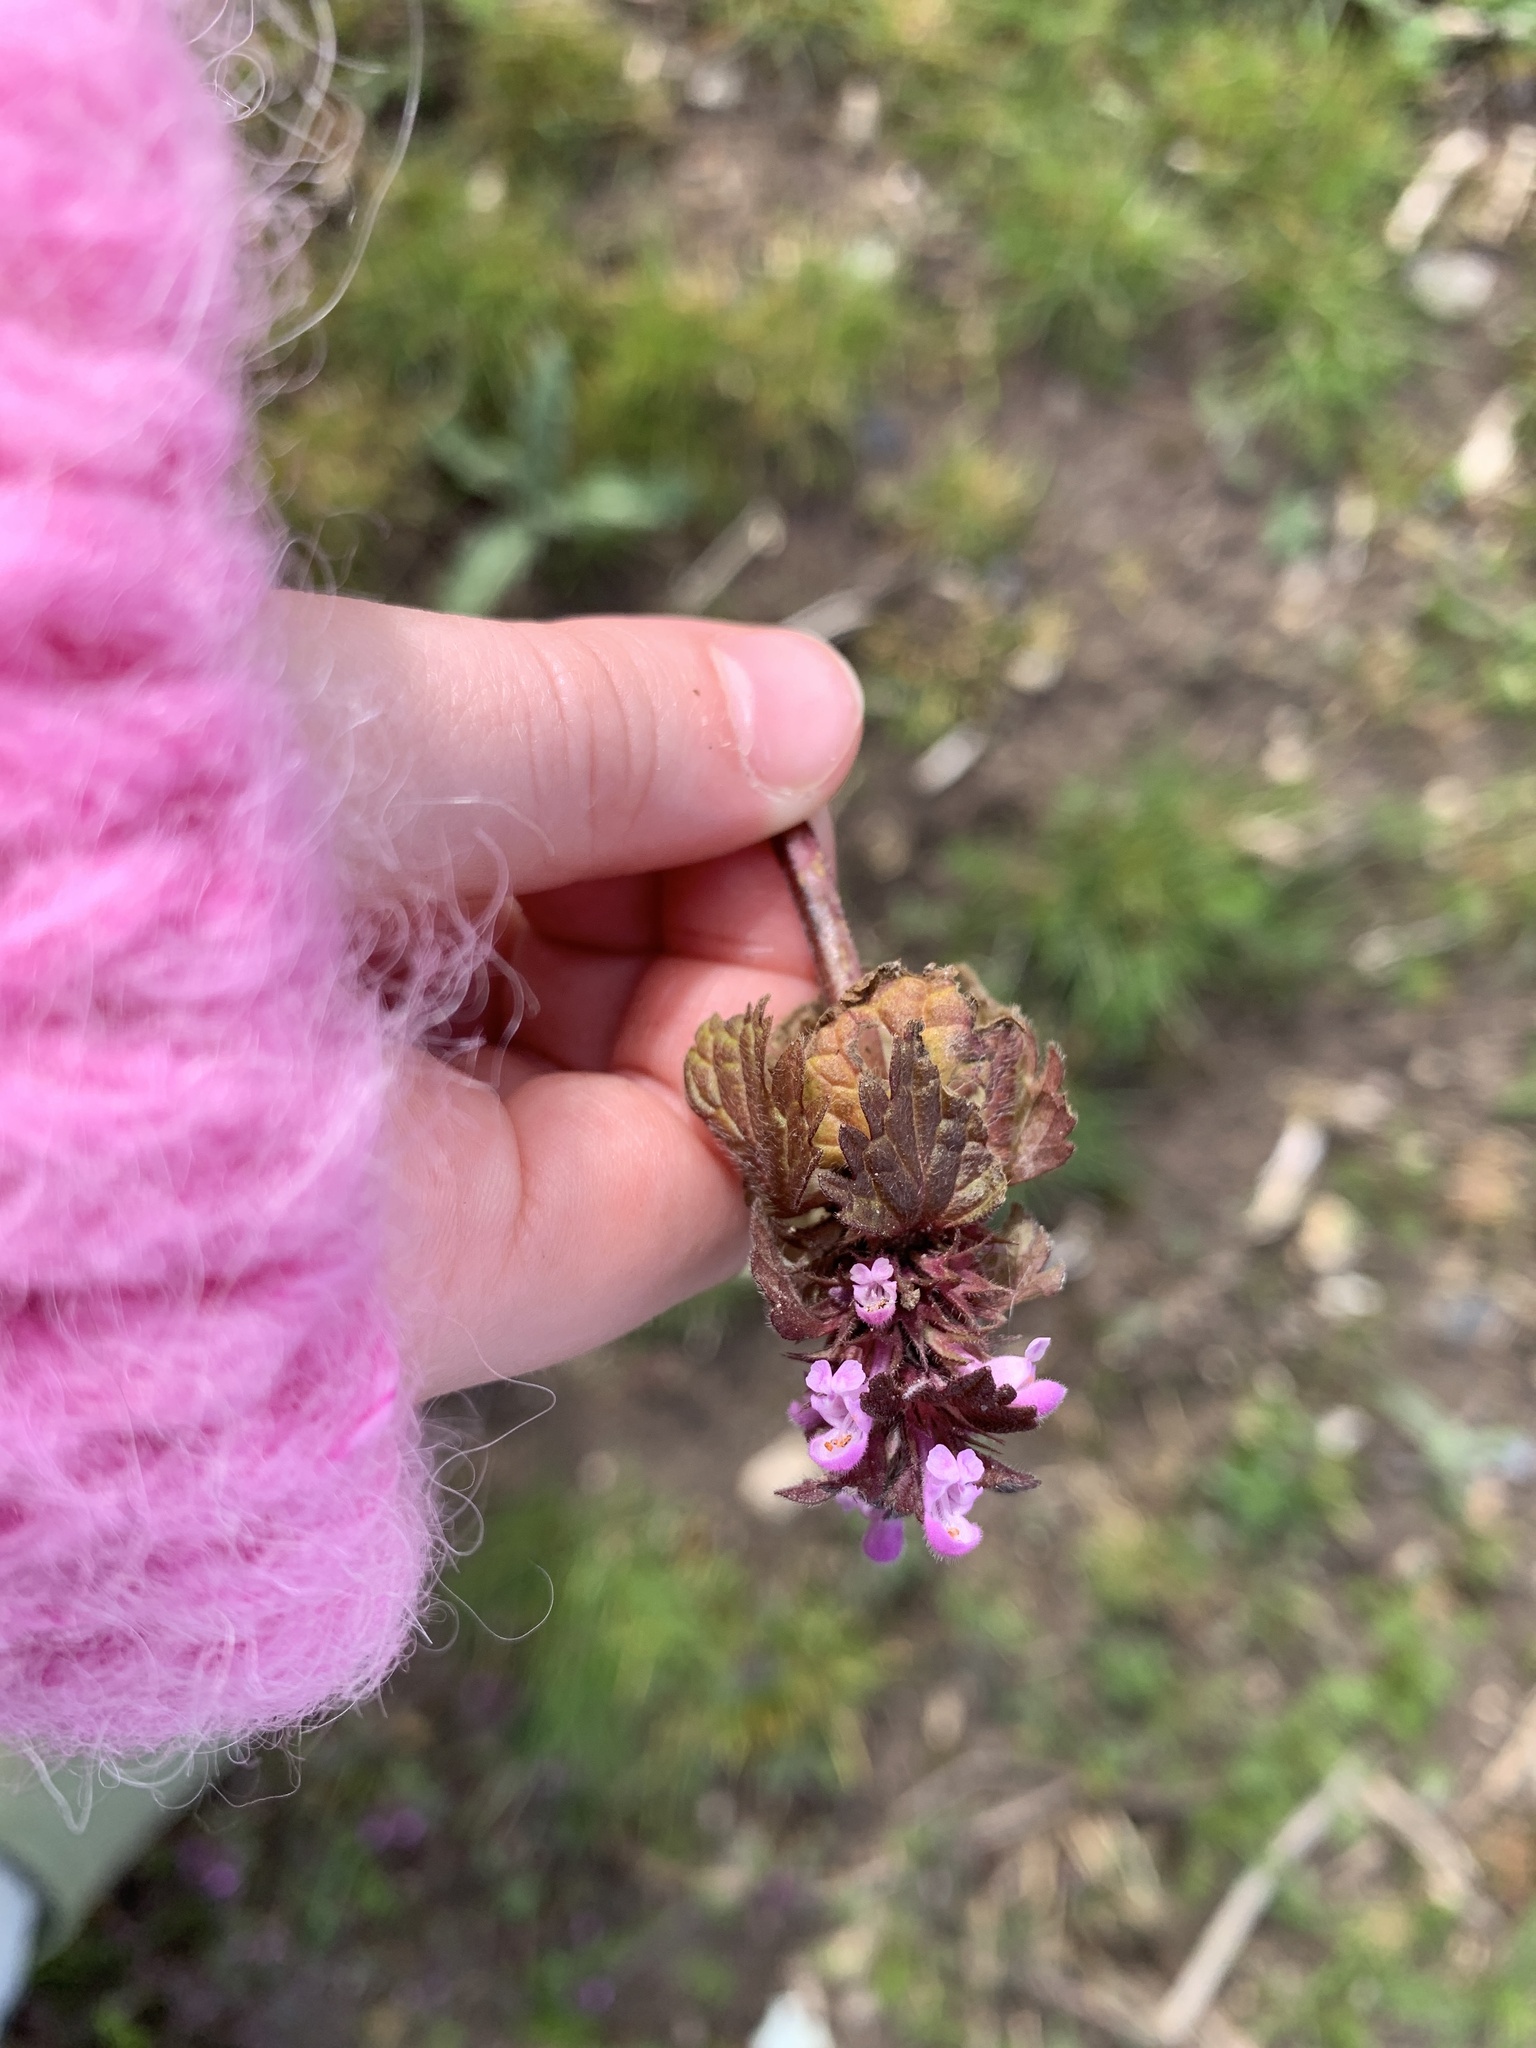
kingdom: Plantae
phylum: Tracheophyta
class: Magnoliopsida
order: Lamiales
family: Lamiaceae
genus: Lamium
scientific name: Lamium purpureum
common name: Red dead-nettle
